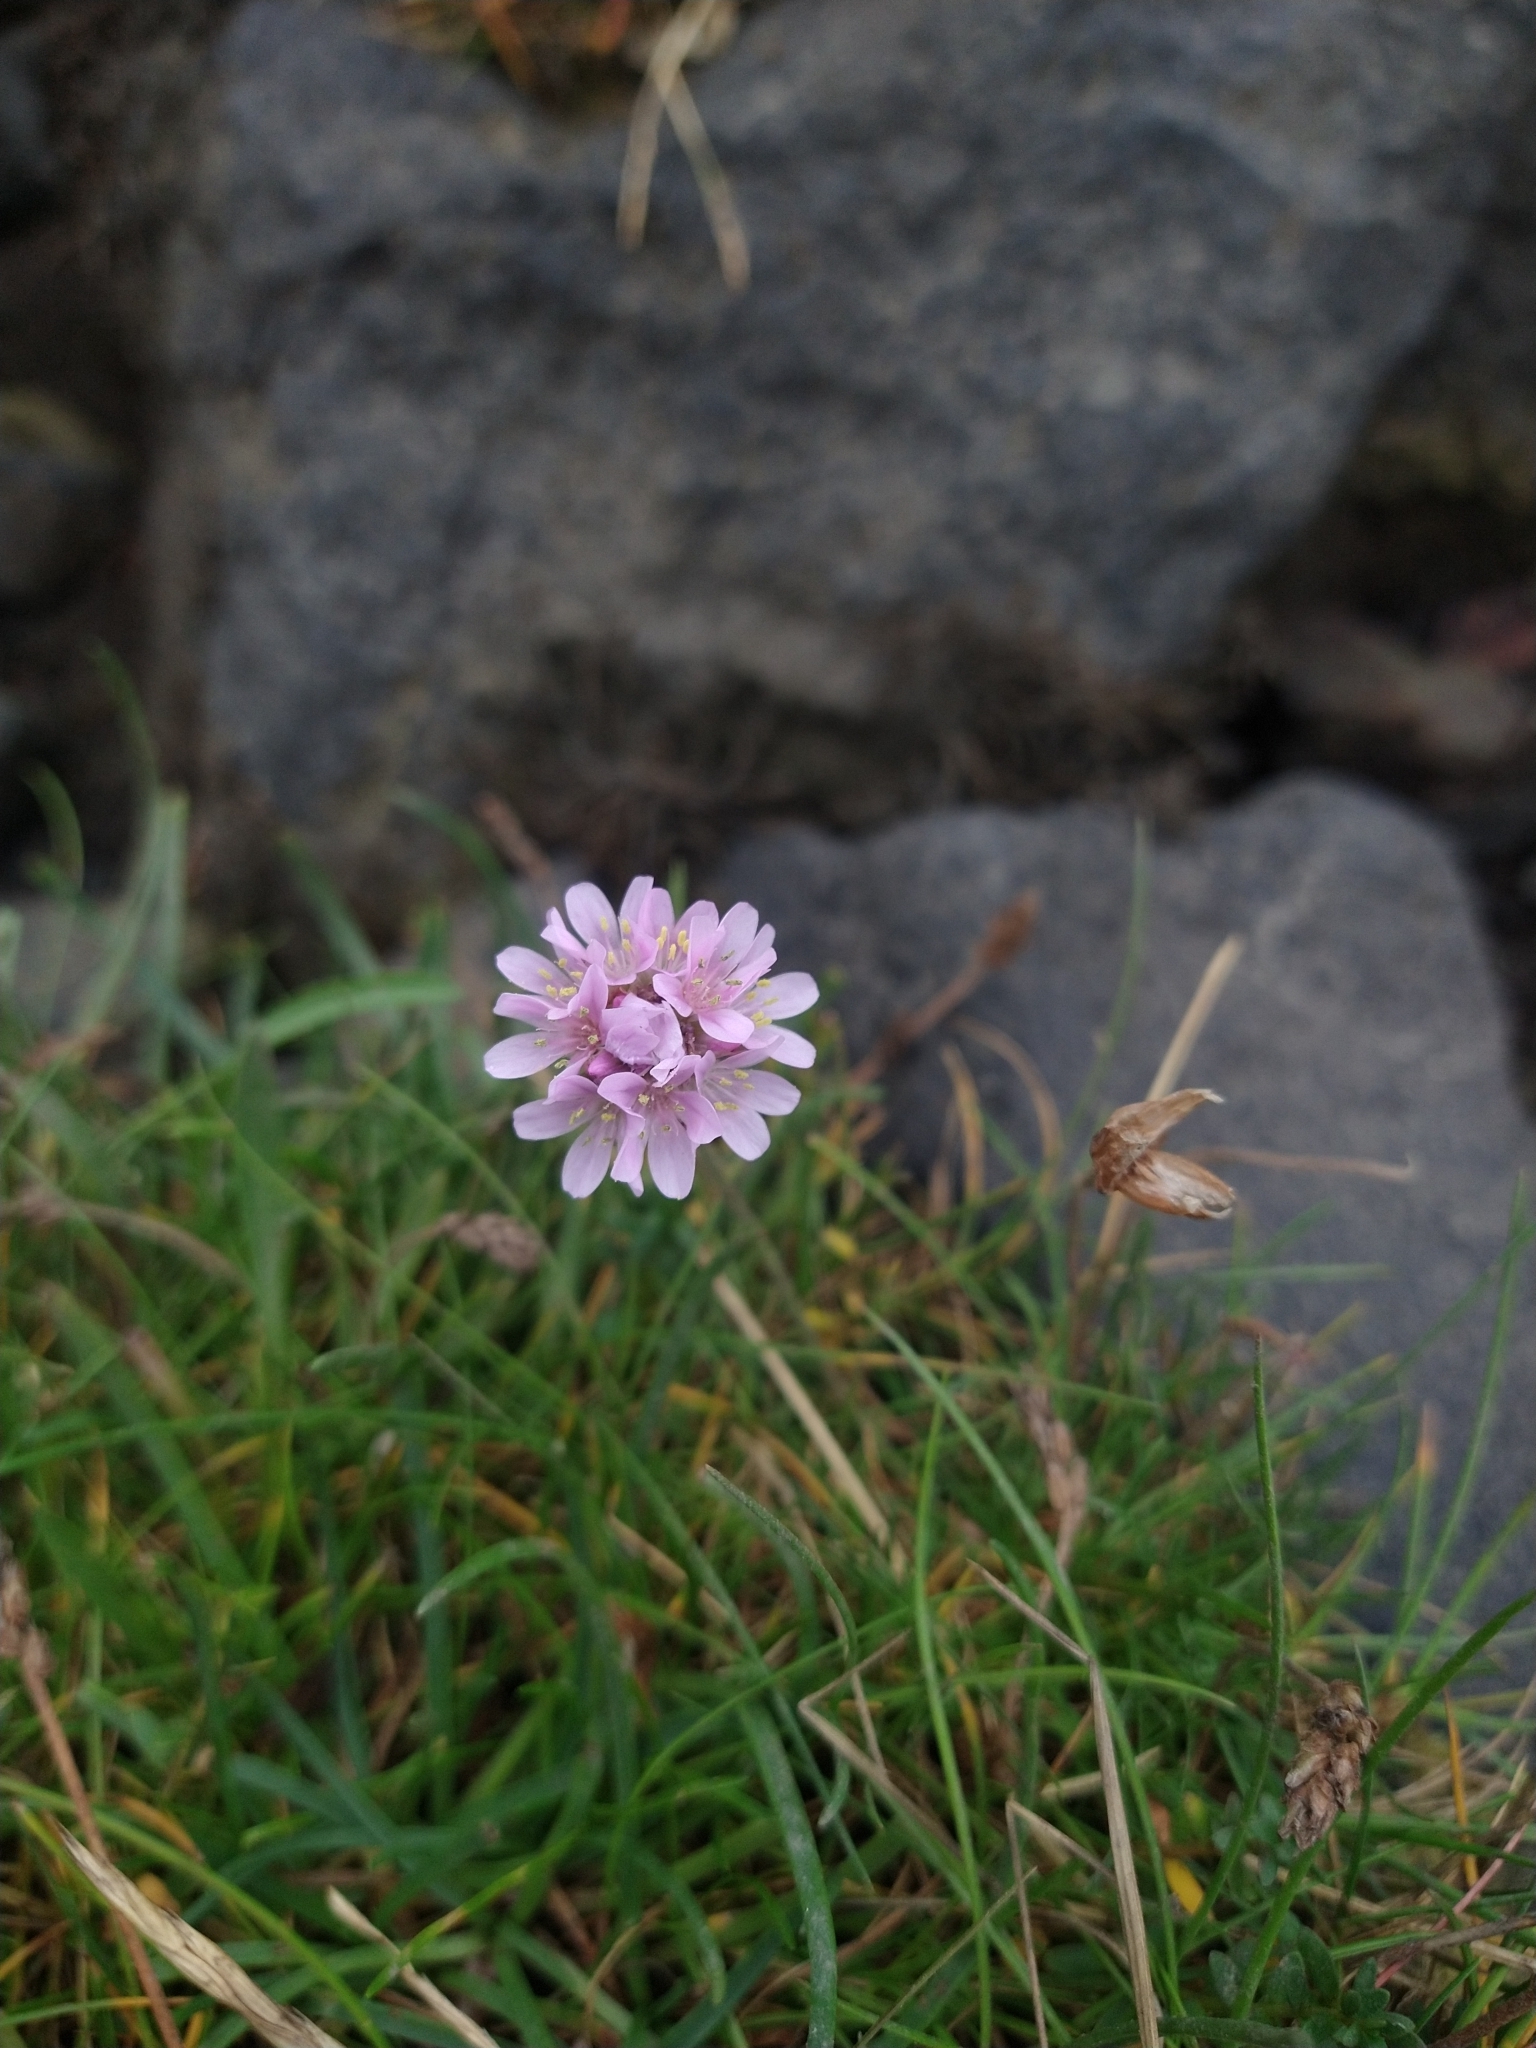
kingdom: Plantae
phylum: Tracheophyta
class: Magnoliopsida
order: Caryophyllales
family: Plumbaginaceae
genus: Armeria
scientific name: Armeria maritima
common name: Thrift
